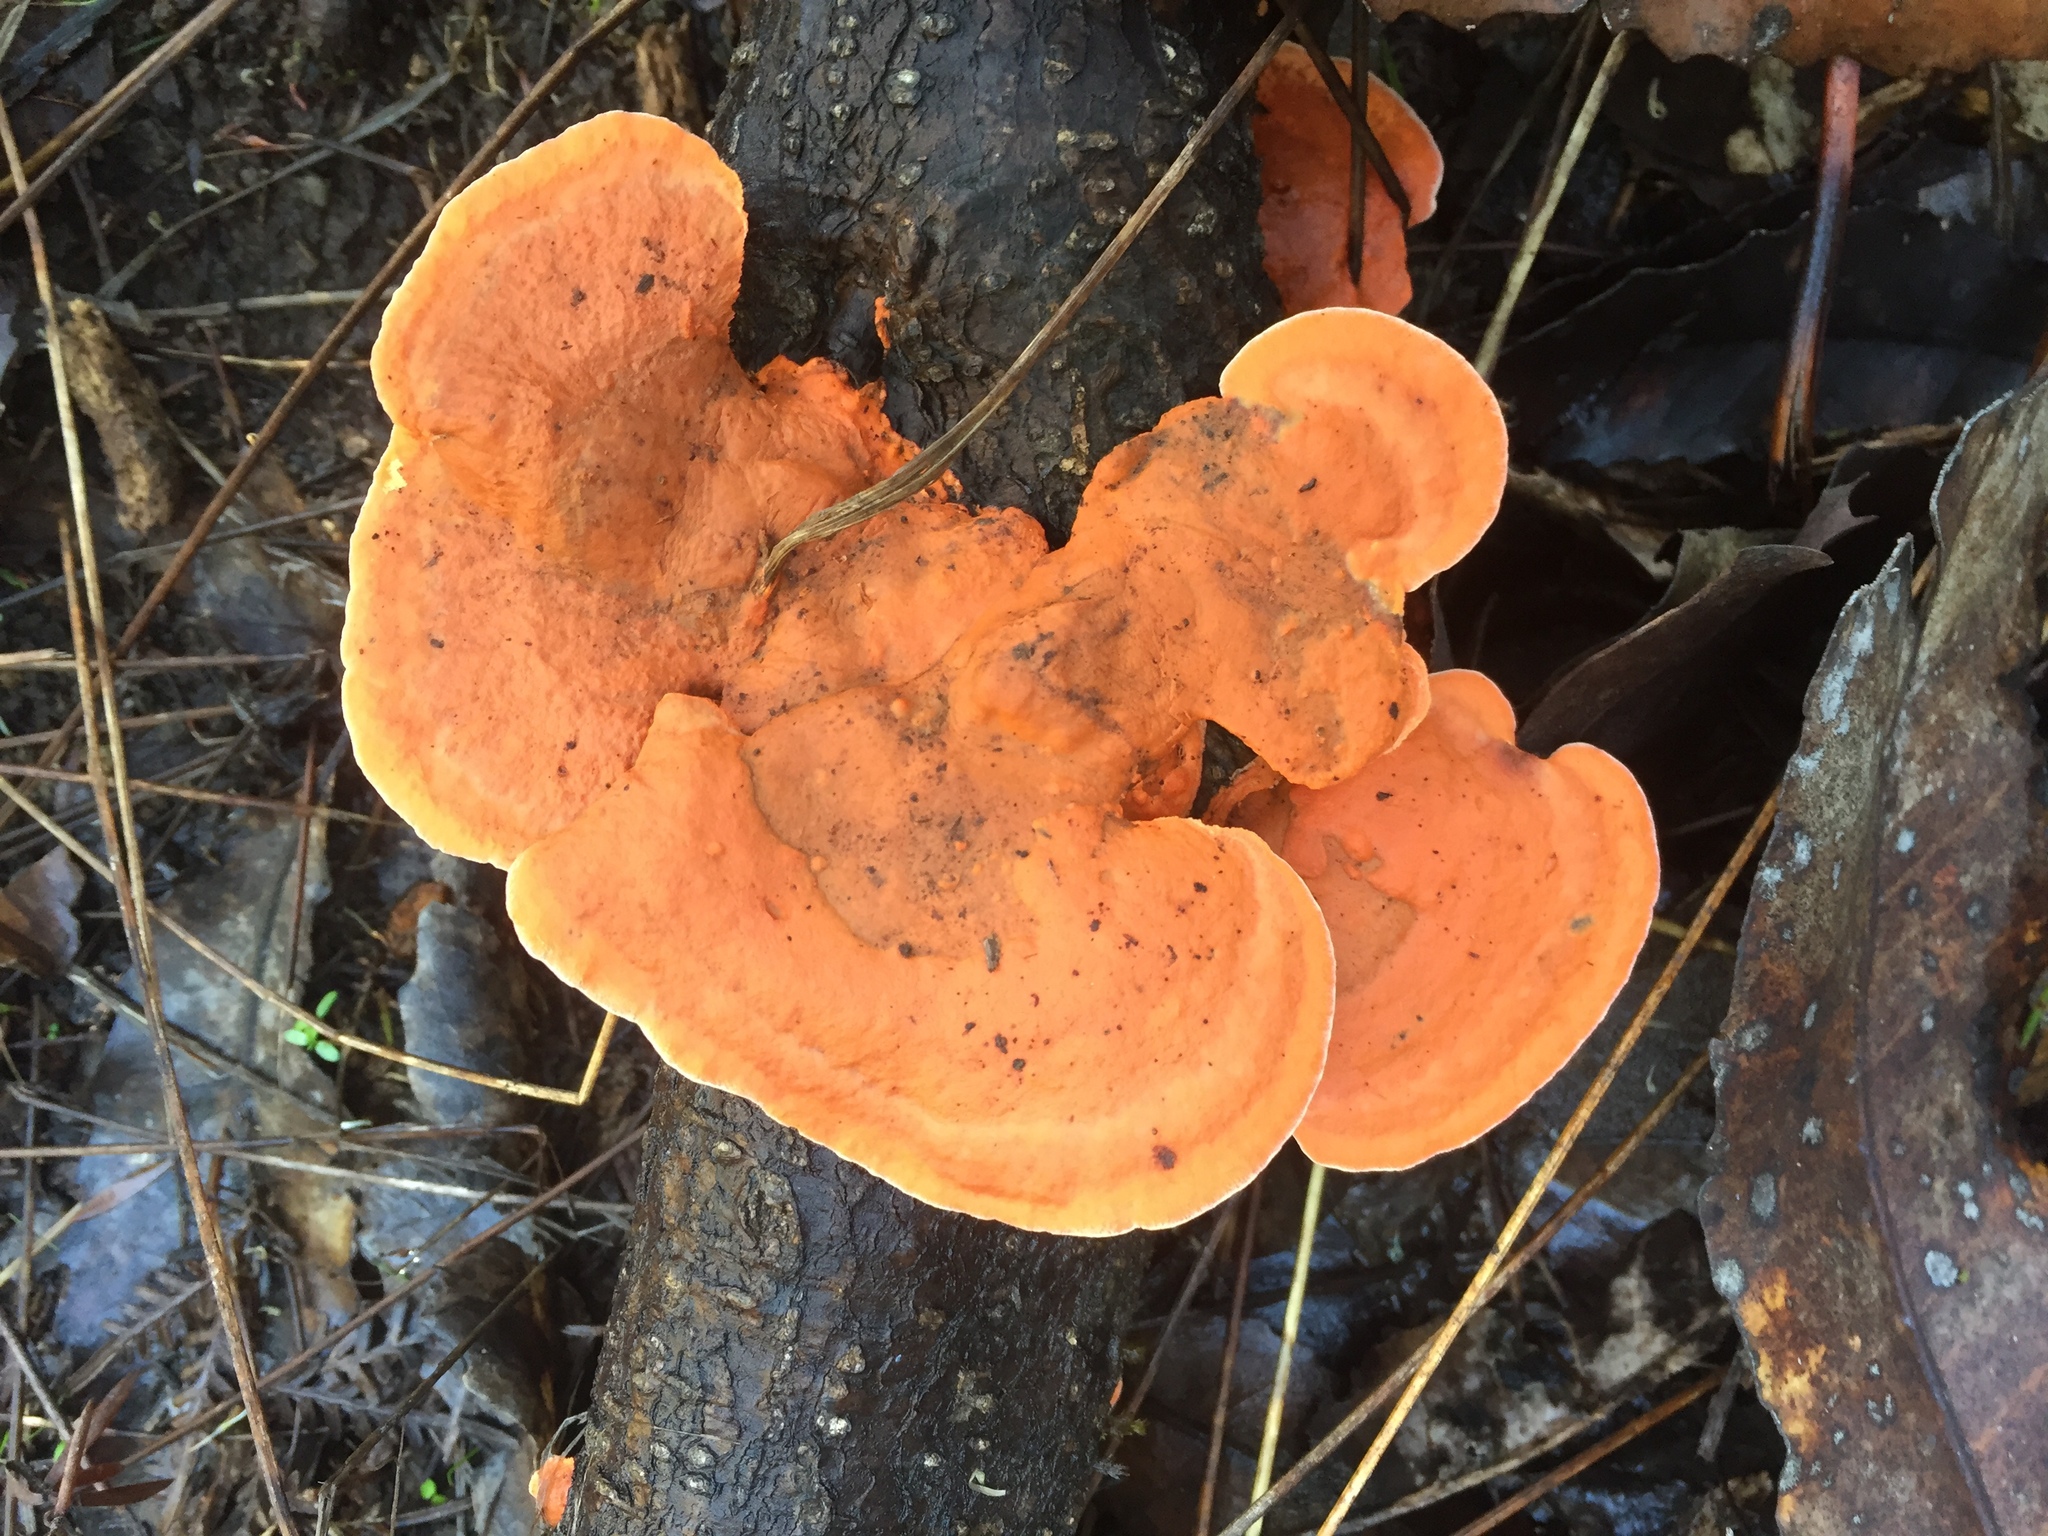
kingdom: Fungi
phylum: Basidiomycota
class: Agaricomycetes
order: Polyporales
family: Polyporaceae
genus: Trametes
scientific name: Trametes coccinea
